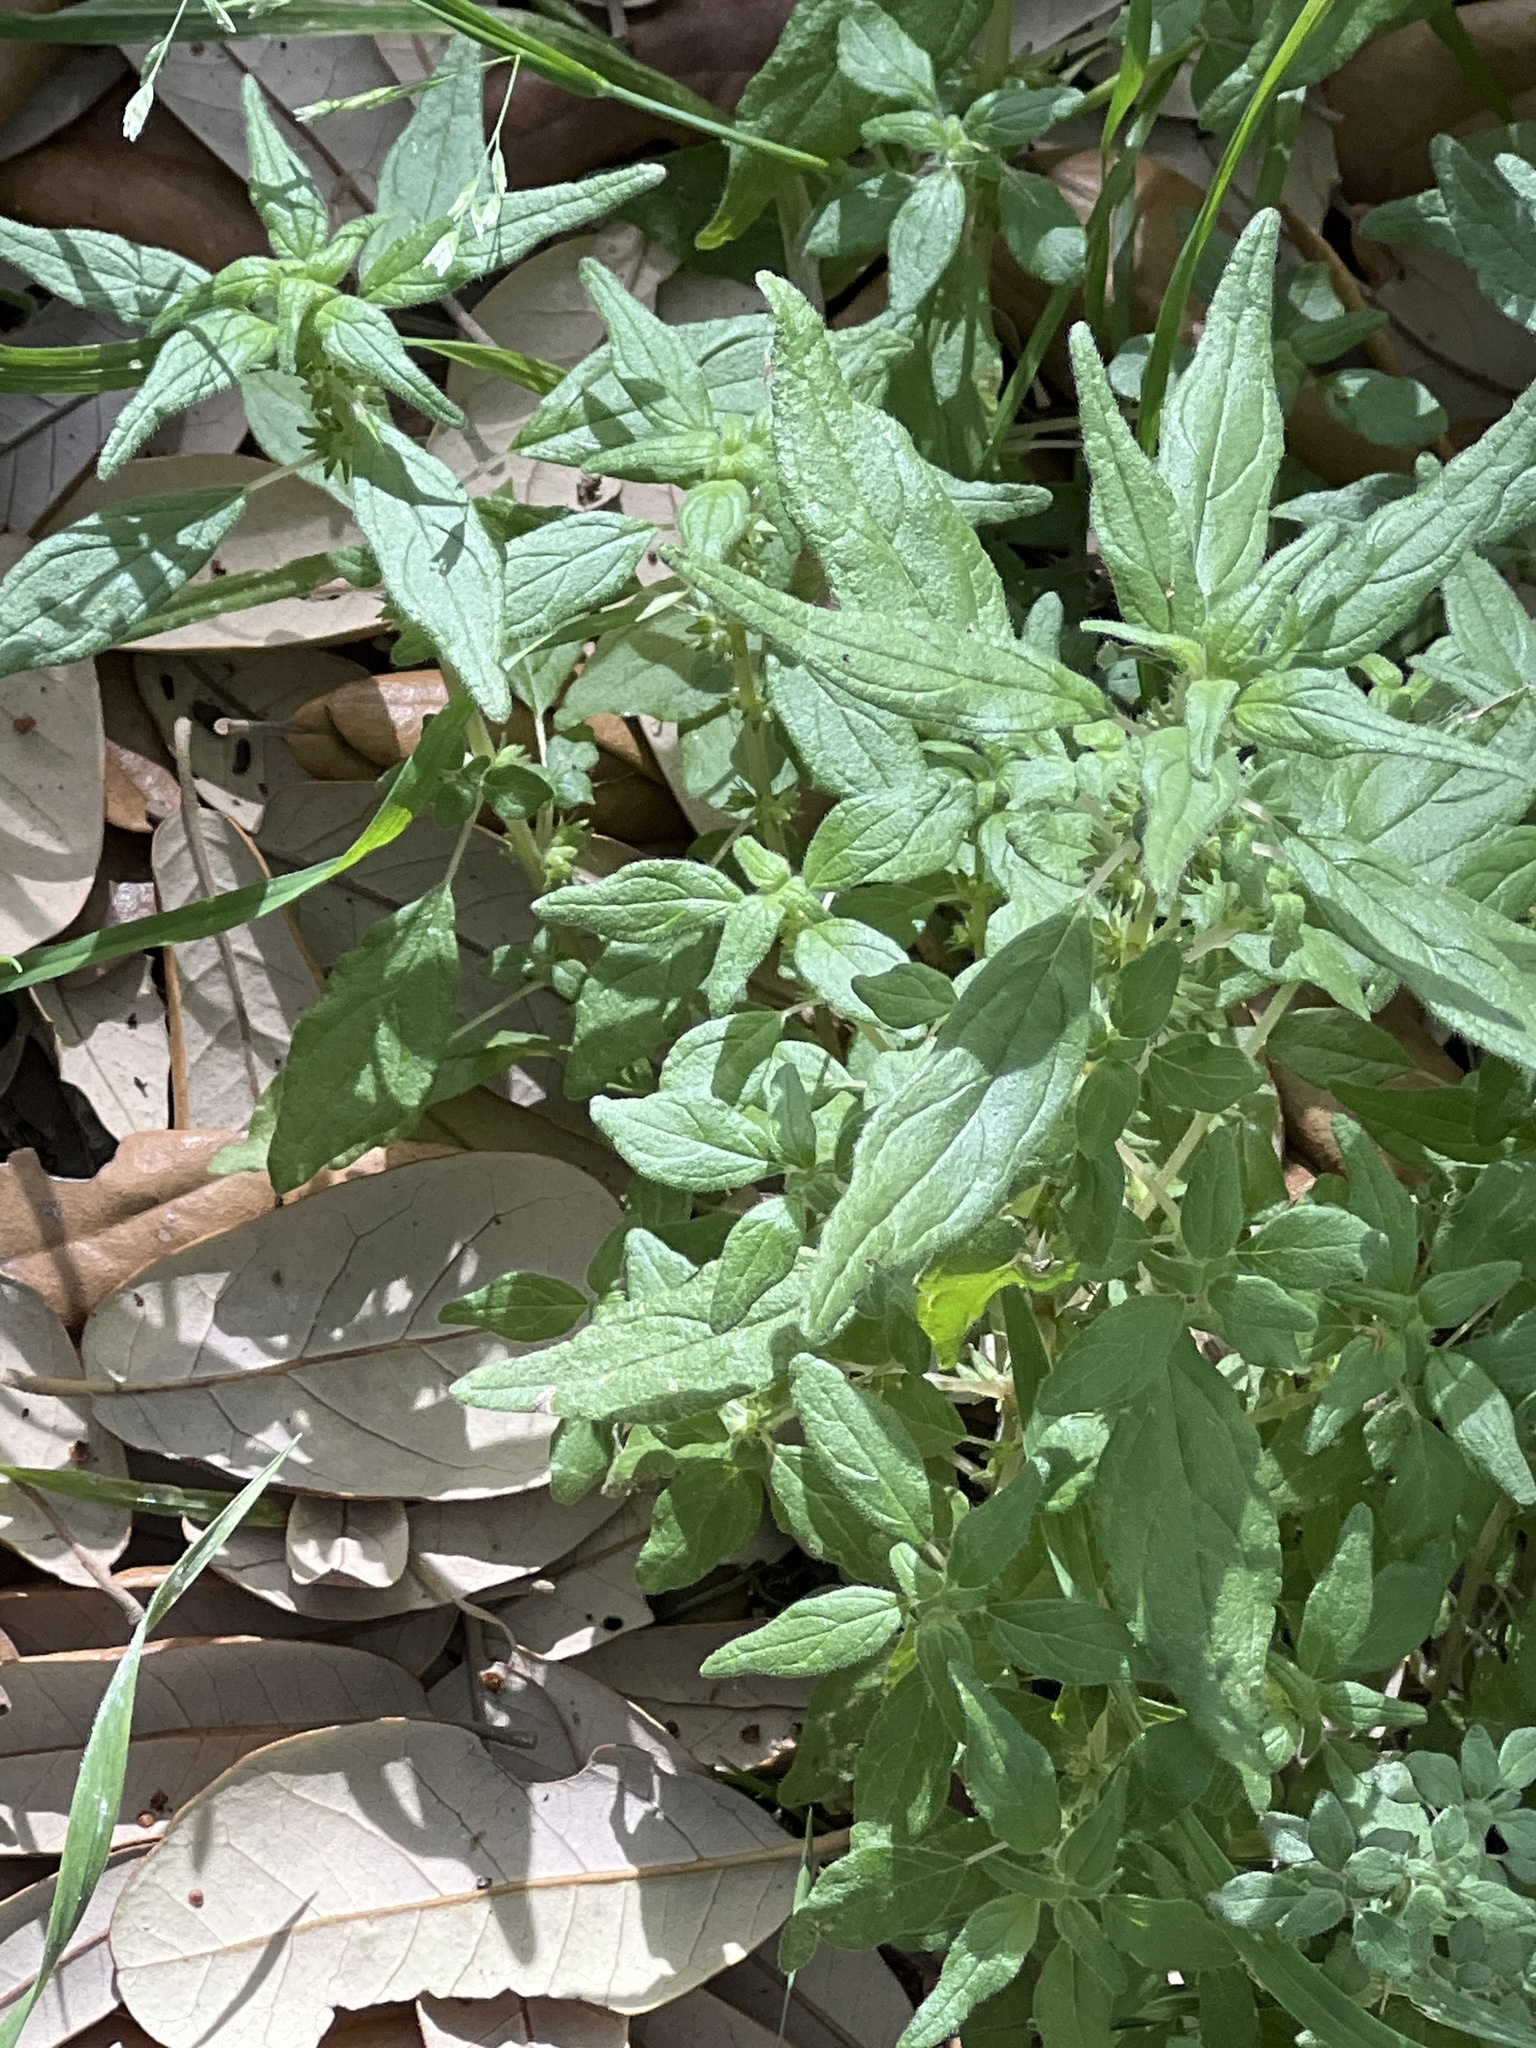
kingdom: Plantae
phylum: Tracheophyta
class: Magnoliopsida
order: Rosales
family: Urticaceae
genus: Parietaria
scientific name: Parietaria pensylvanica
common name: Pennsylvania pellitory
